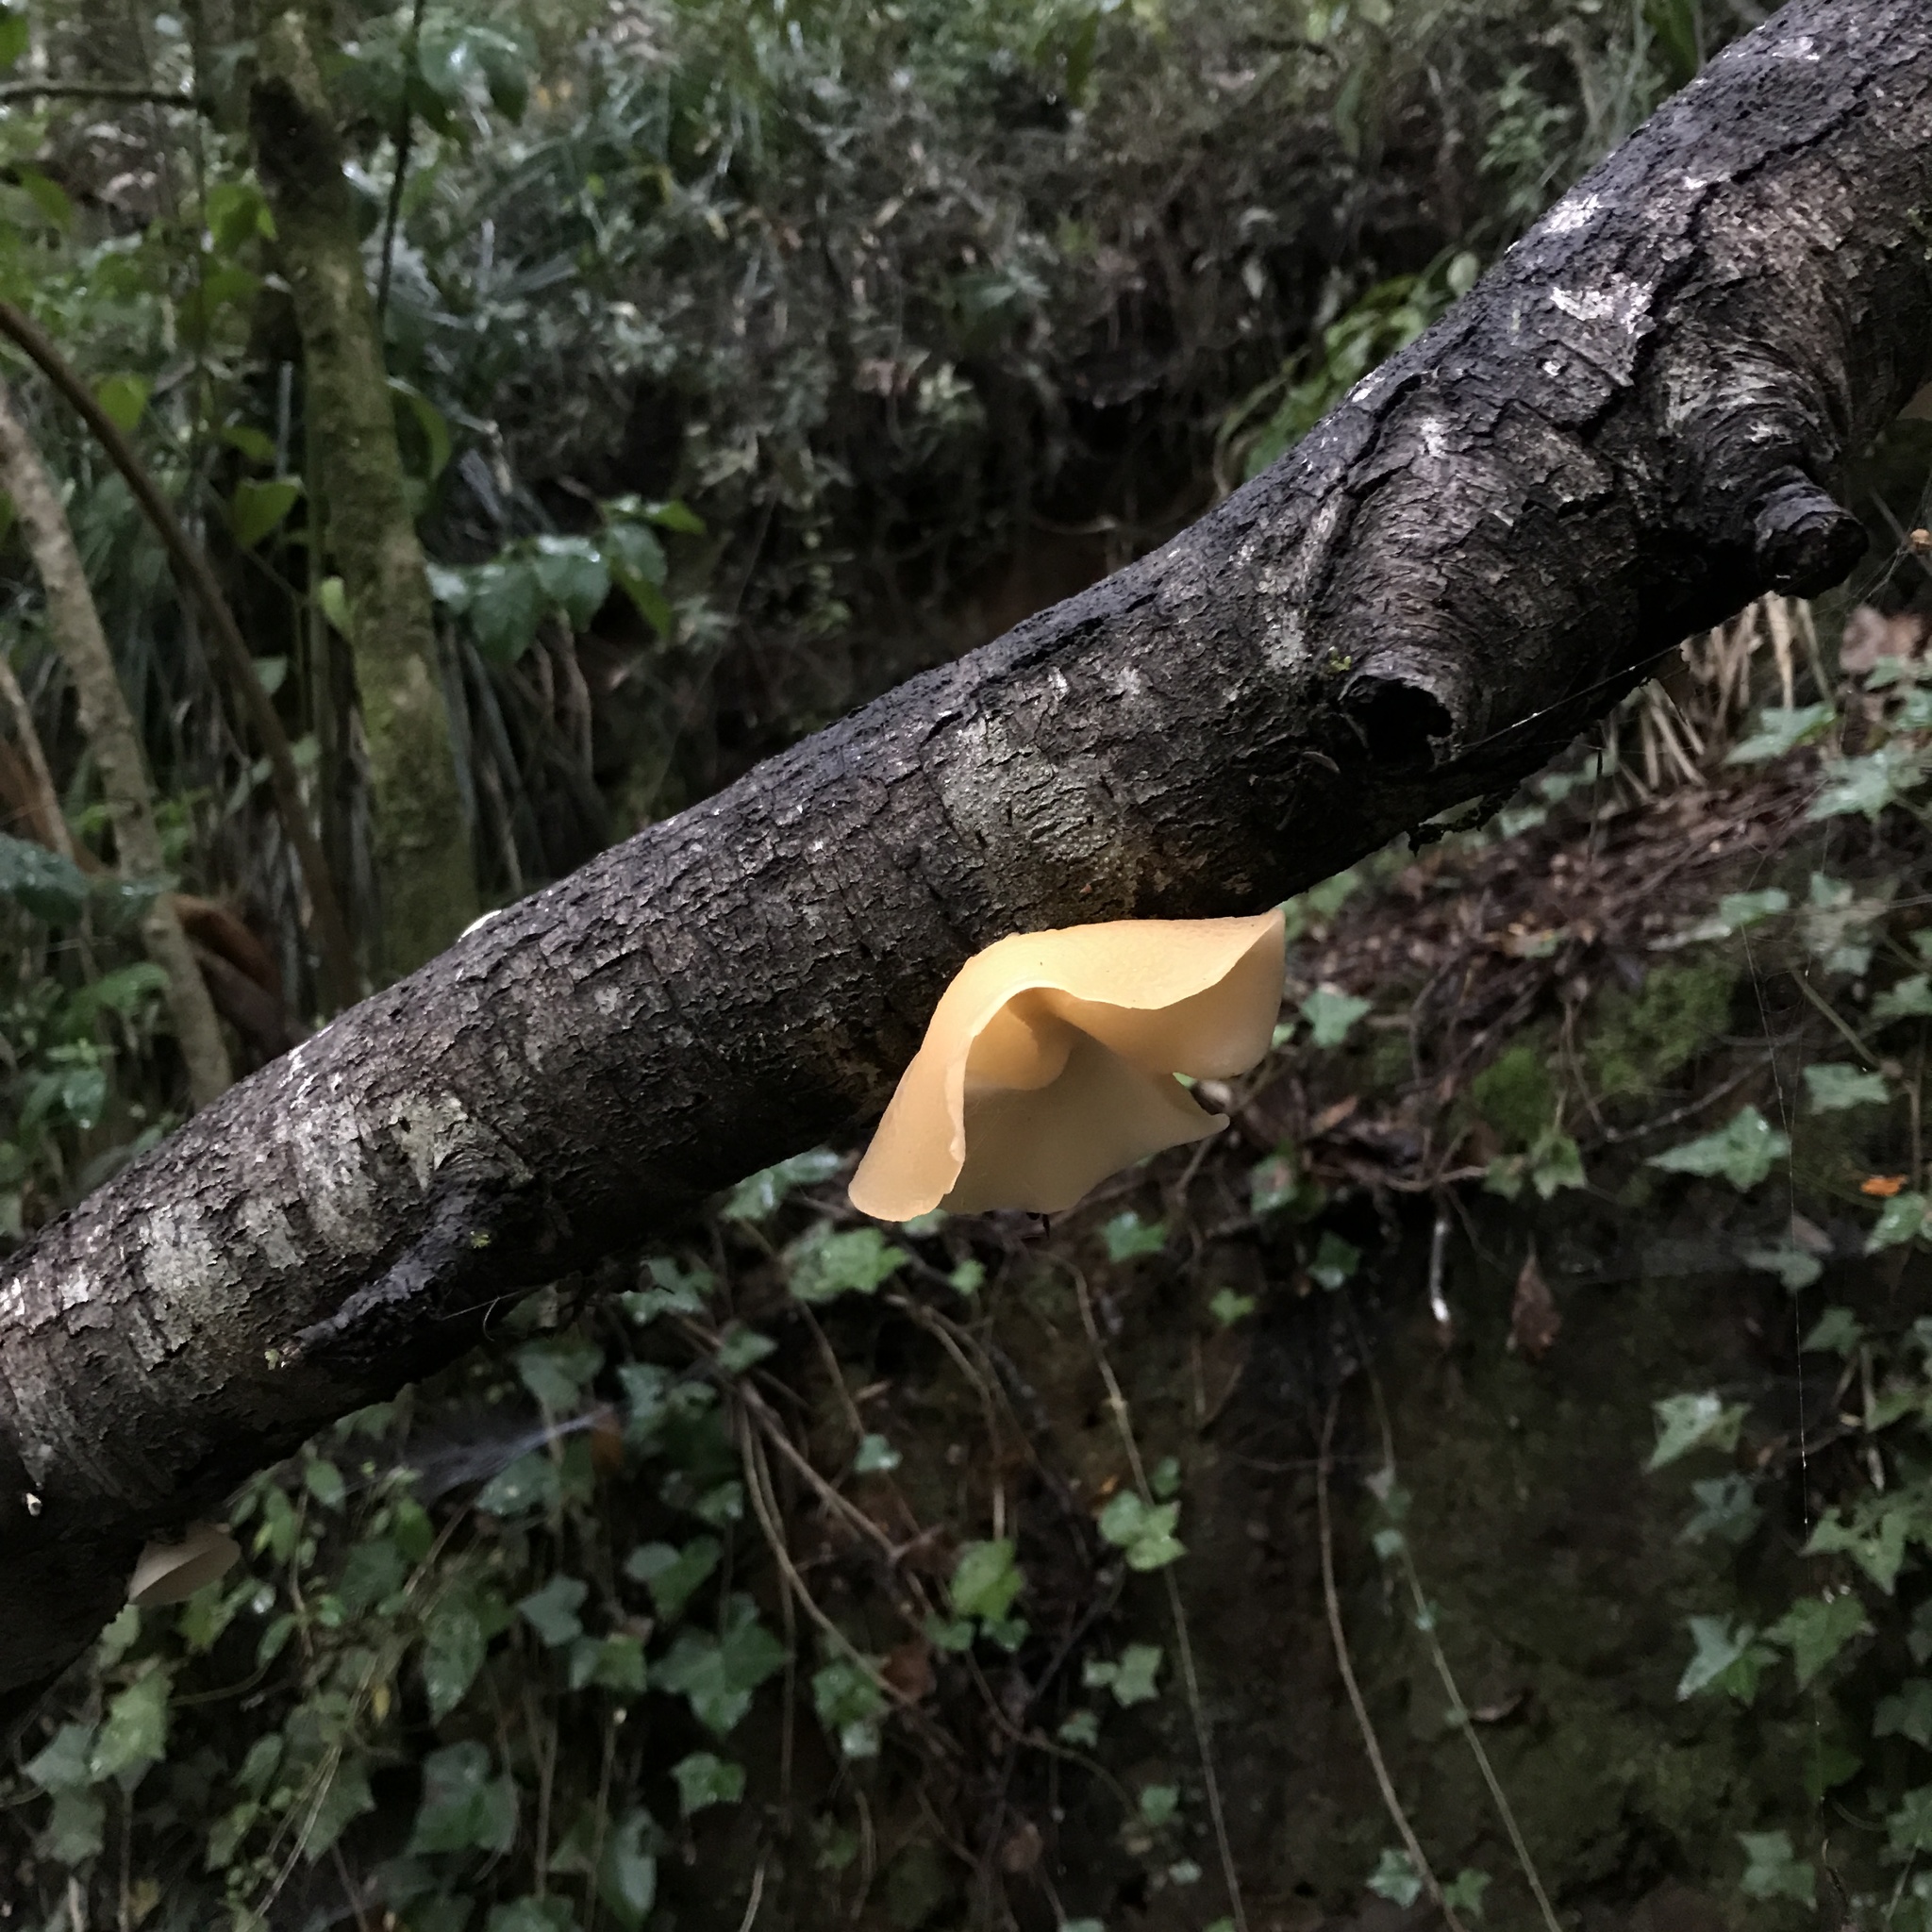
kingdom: Fungi
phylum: Basidiomycota
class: Agaricomycetes
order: Russulales
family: Stereaceae
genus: Aleurodiscus
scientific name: Aleurodiscus vitellinus
